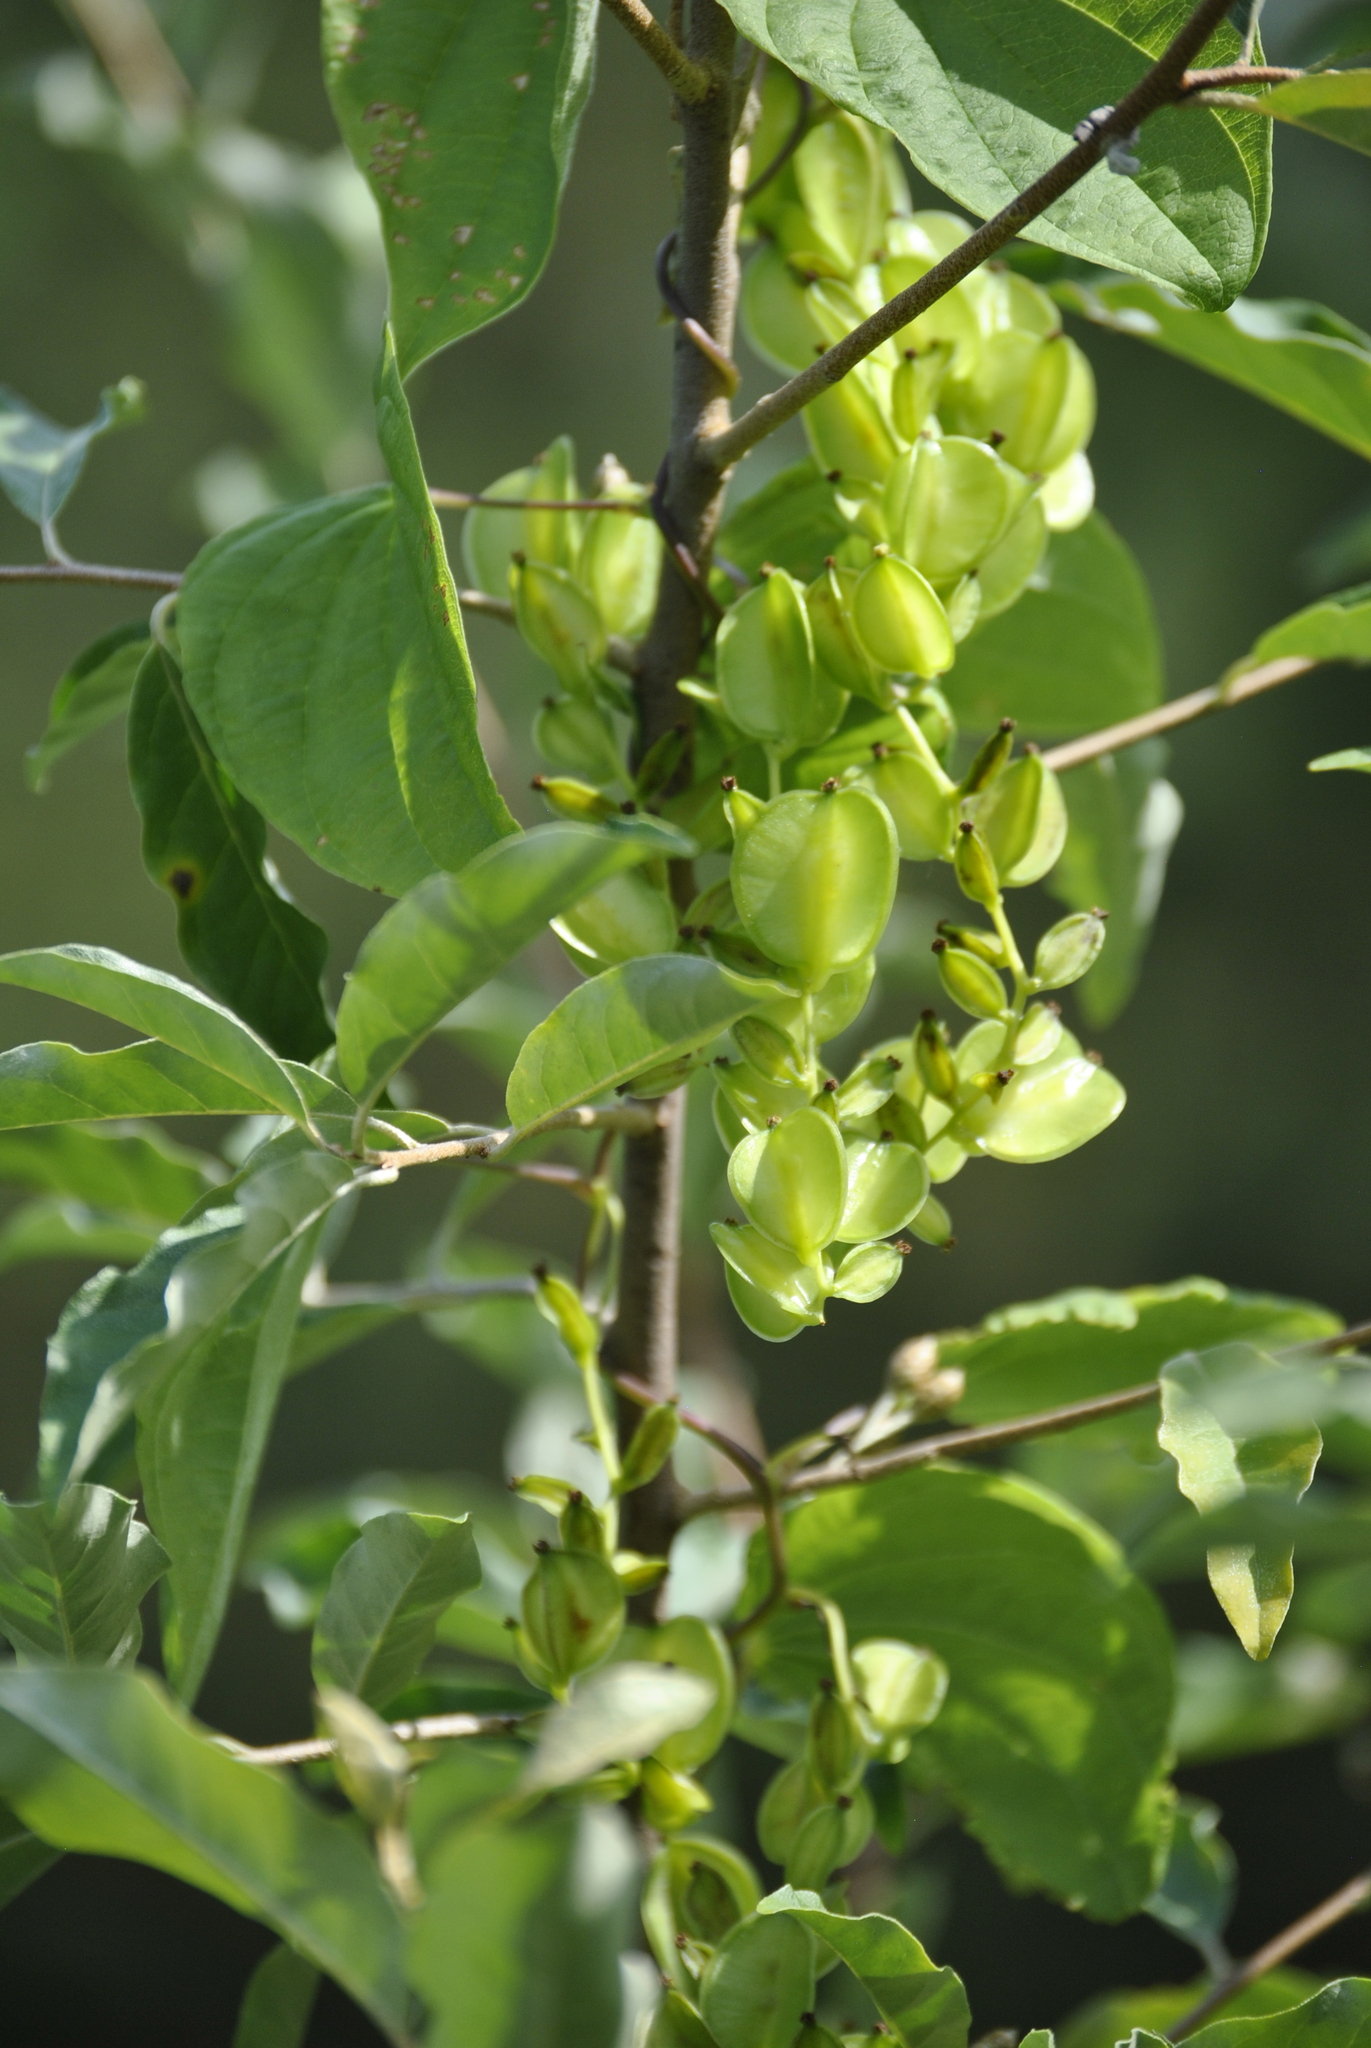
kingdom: Plantae
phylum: Tracheophyta
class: Liliopsida
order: Dioscoreales
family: Dioscoreaceae
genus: Dioscorea
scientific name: Dioscorea villosa
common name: Wild yam
